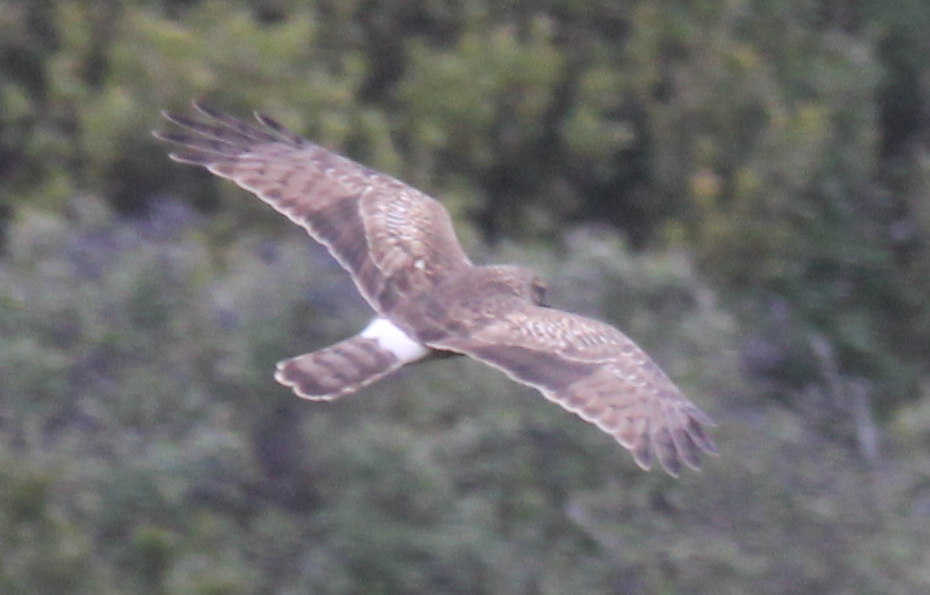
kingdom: Animalia
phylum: Chordata
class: Aves
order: Accipitriformes
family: Accipitridae
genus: Circus
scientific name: Circus cyaneus
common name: Hen harrier
